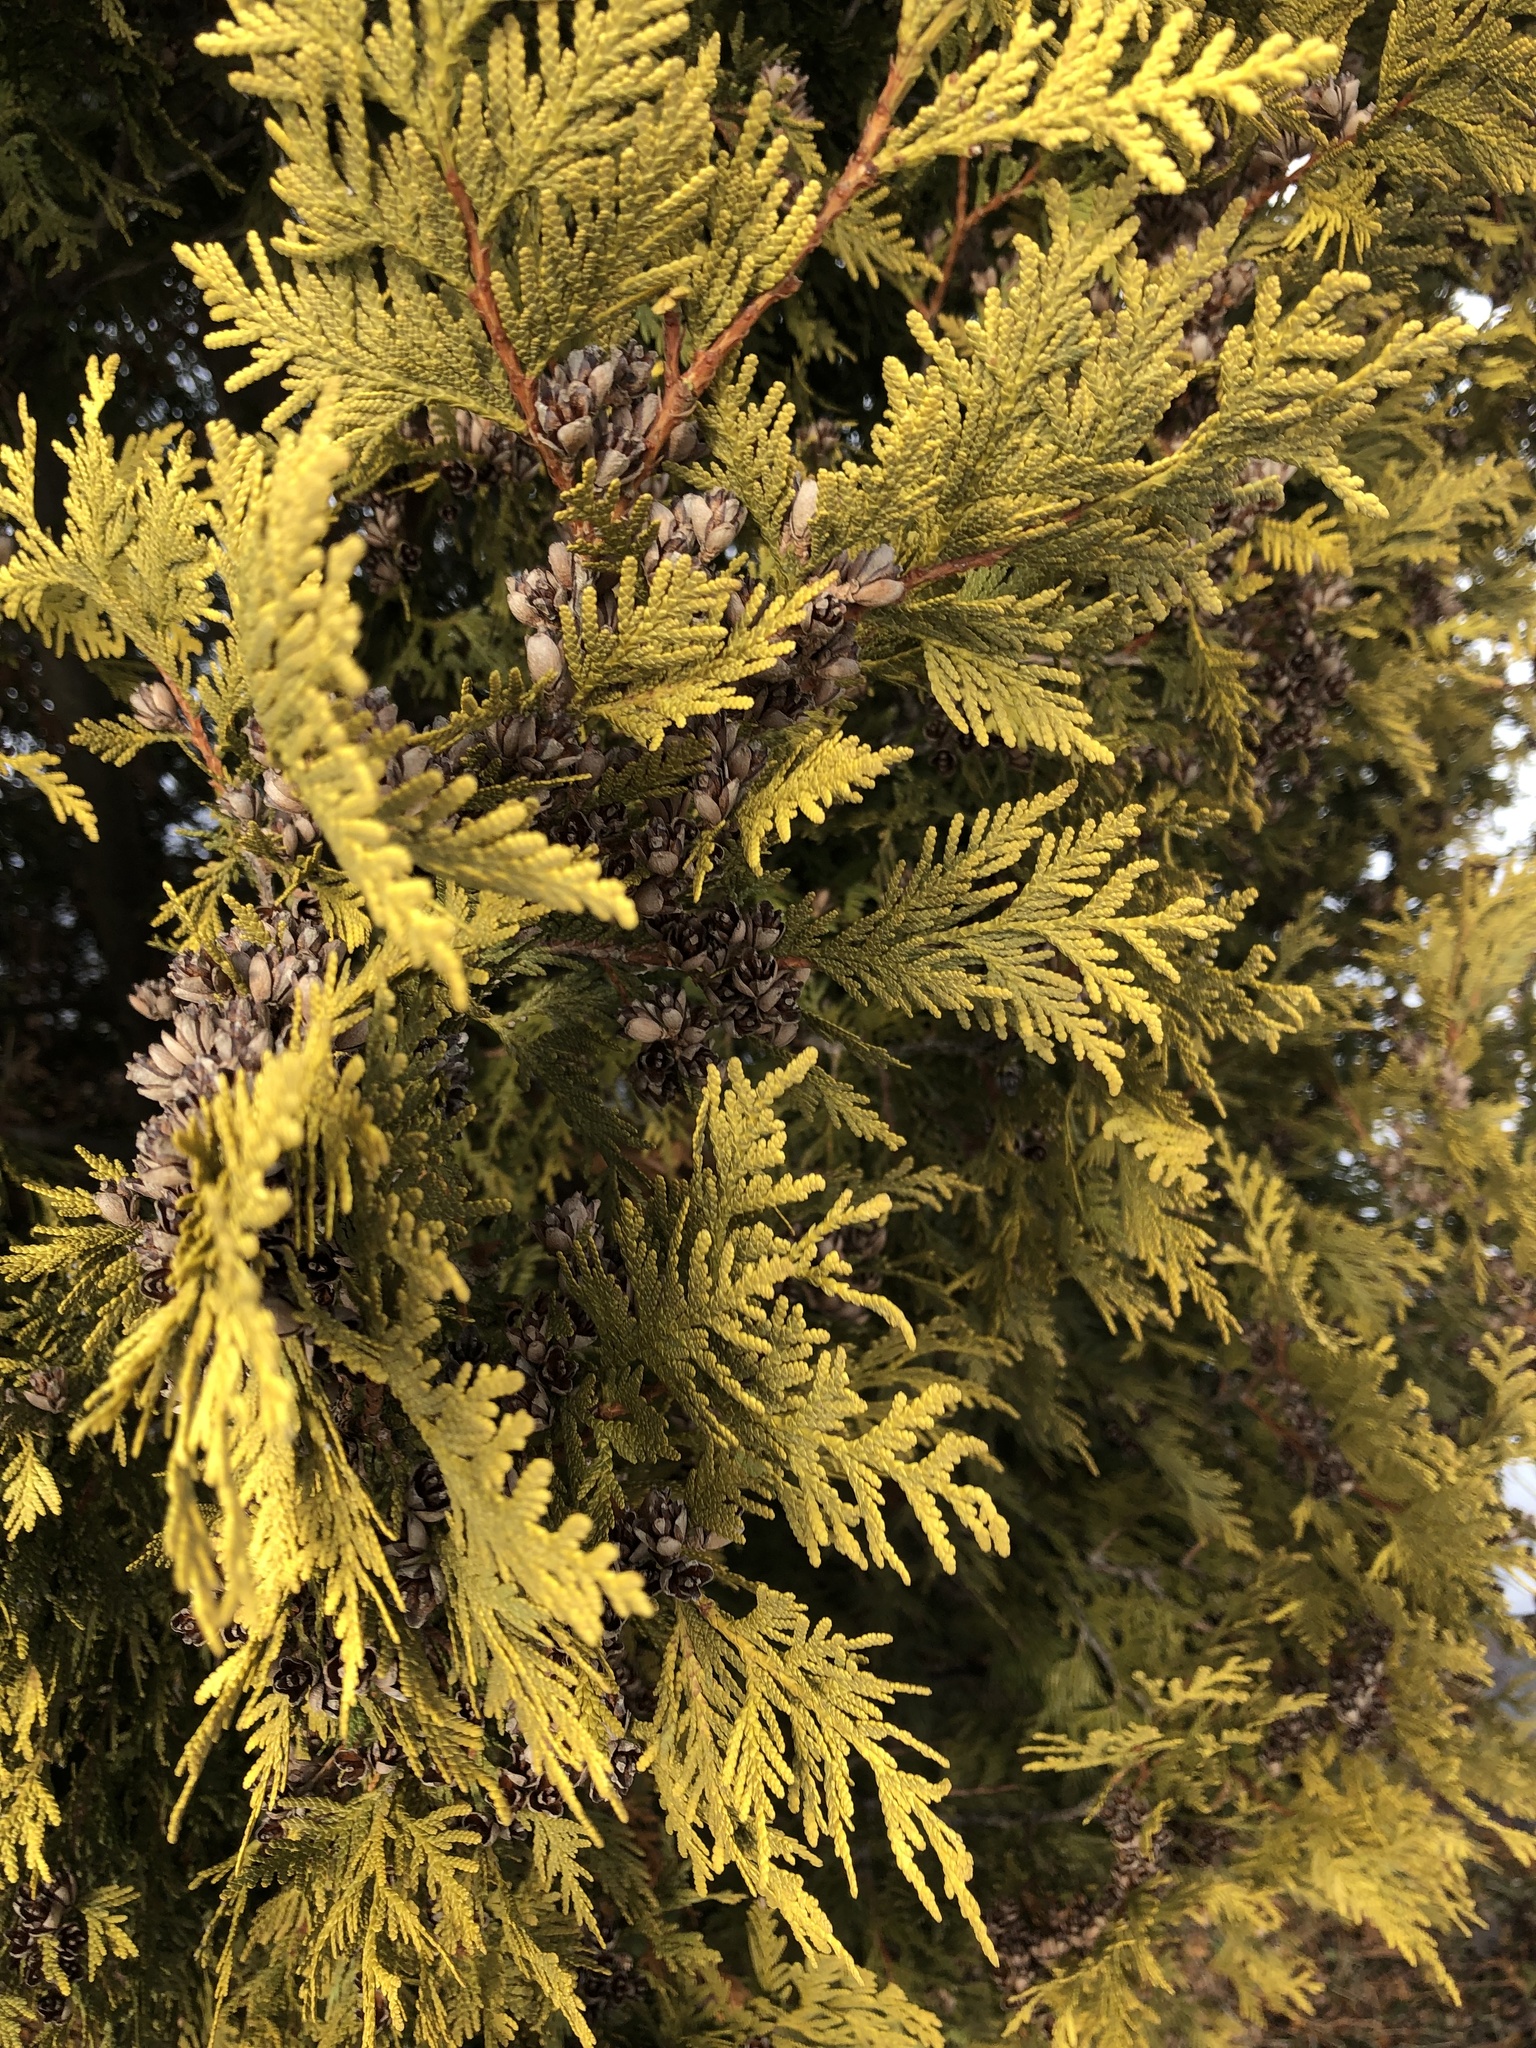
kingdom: Plantae
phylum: Tracheophyta
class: Pinopsida
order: Pinales
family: Cupressaceae
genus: Thuja
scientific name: Thuja occidentalis
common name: Northern white-cedar
